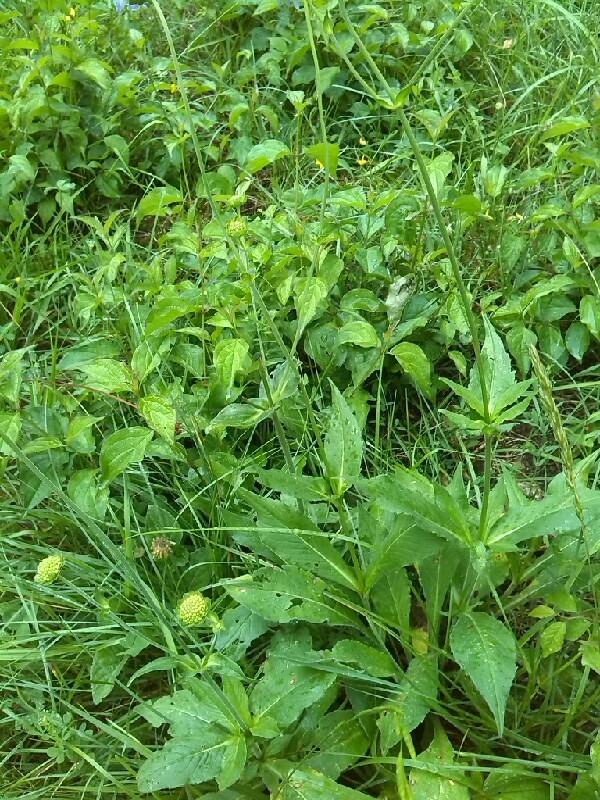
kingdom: Plantae
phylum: Tracheophyta
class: Magnoliopsida
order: Dipsacales
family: Caprifoliaceae
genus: Knautia
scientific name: Knautia dipsacifolia
